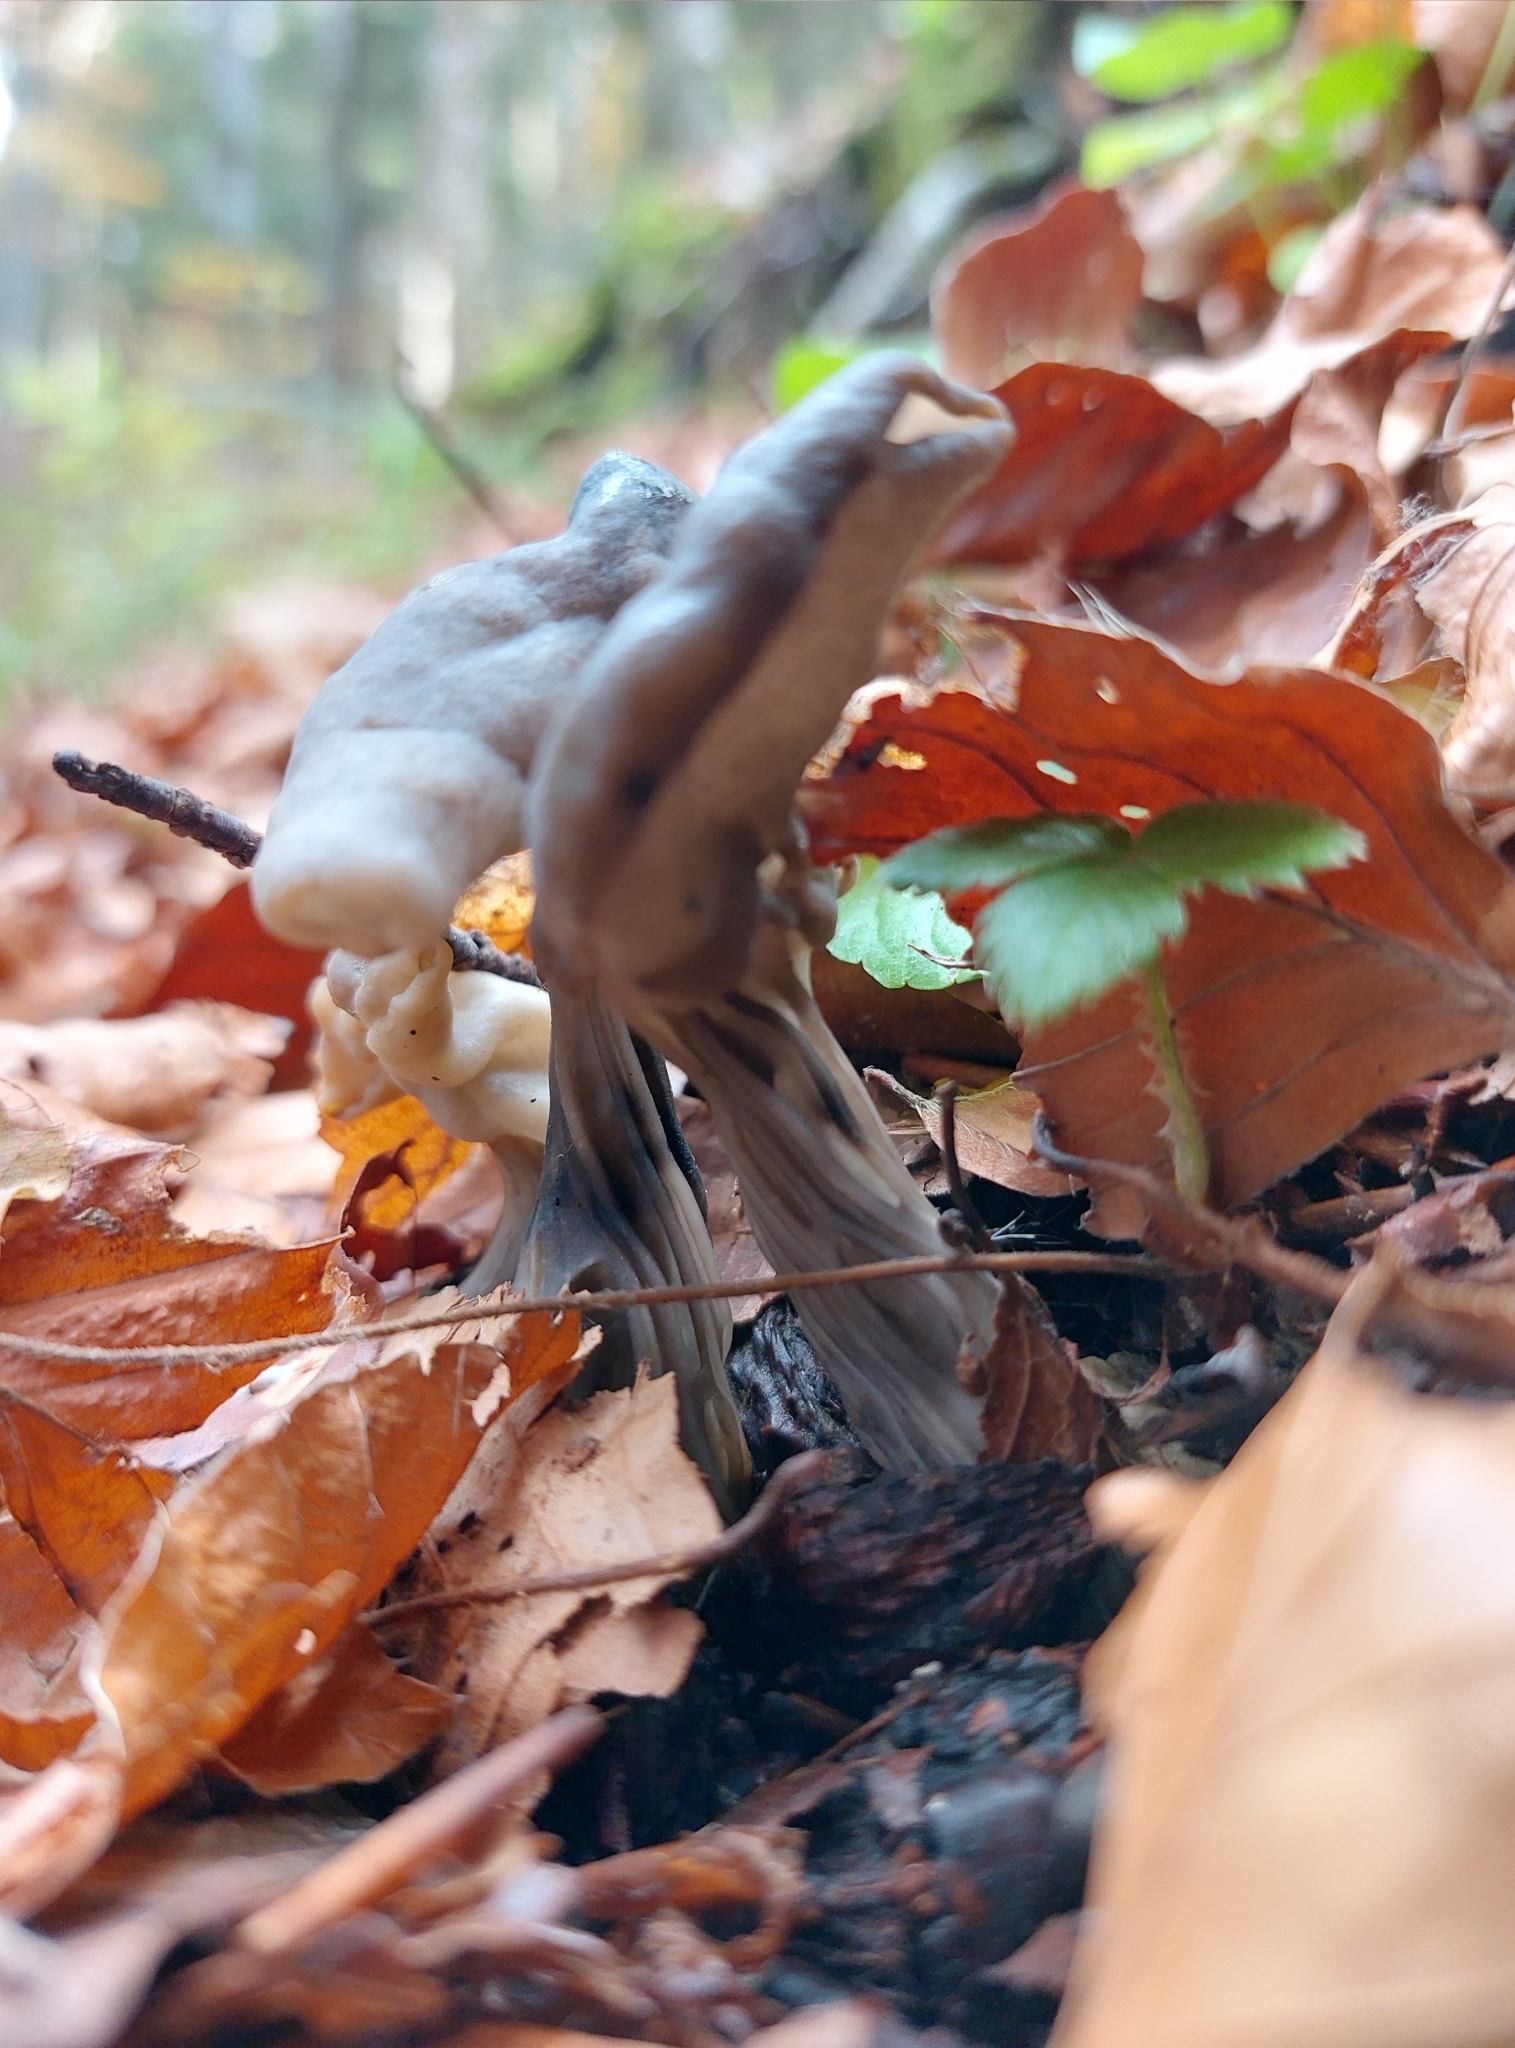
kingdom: Fungi
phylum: Ascomycota
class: Pezizomycetes
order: Pezizales
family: Helvellaceae
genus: Helvella
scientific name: Helvella lacunosa
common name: Elfin saddle
